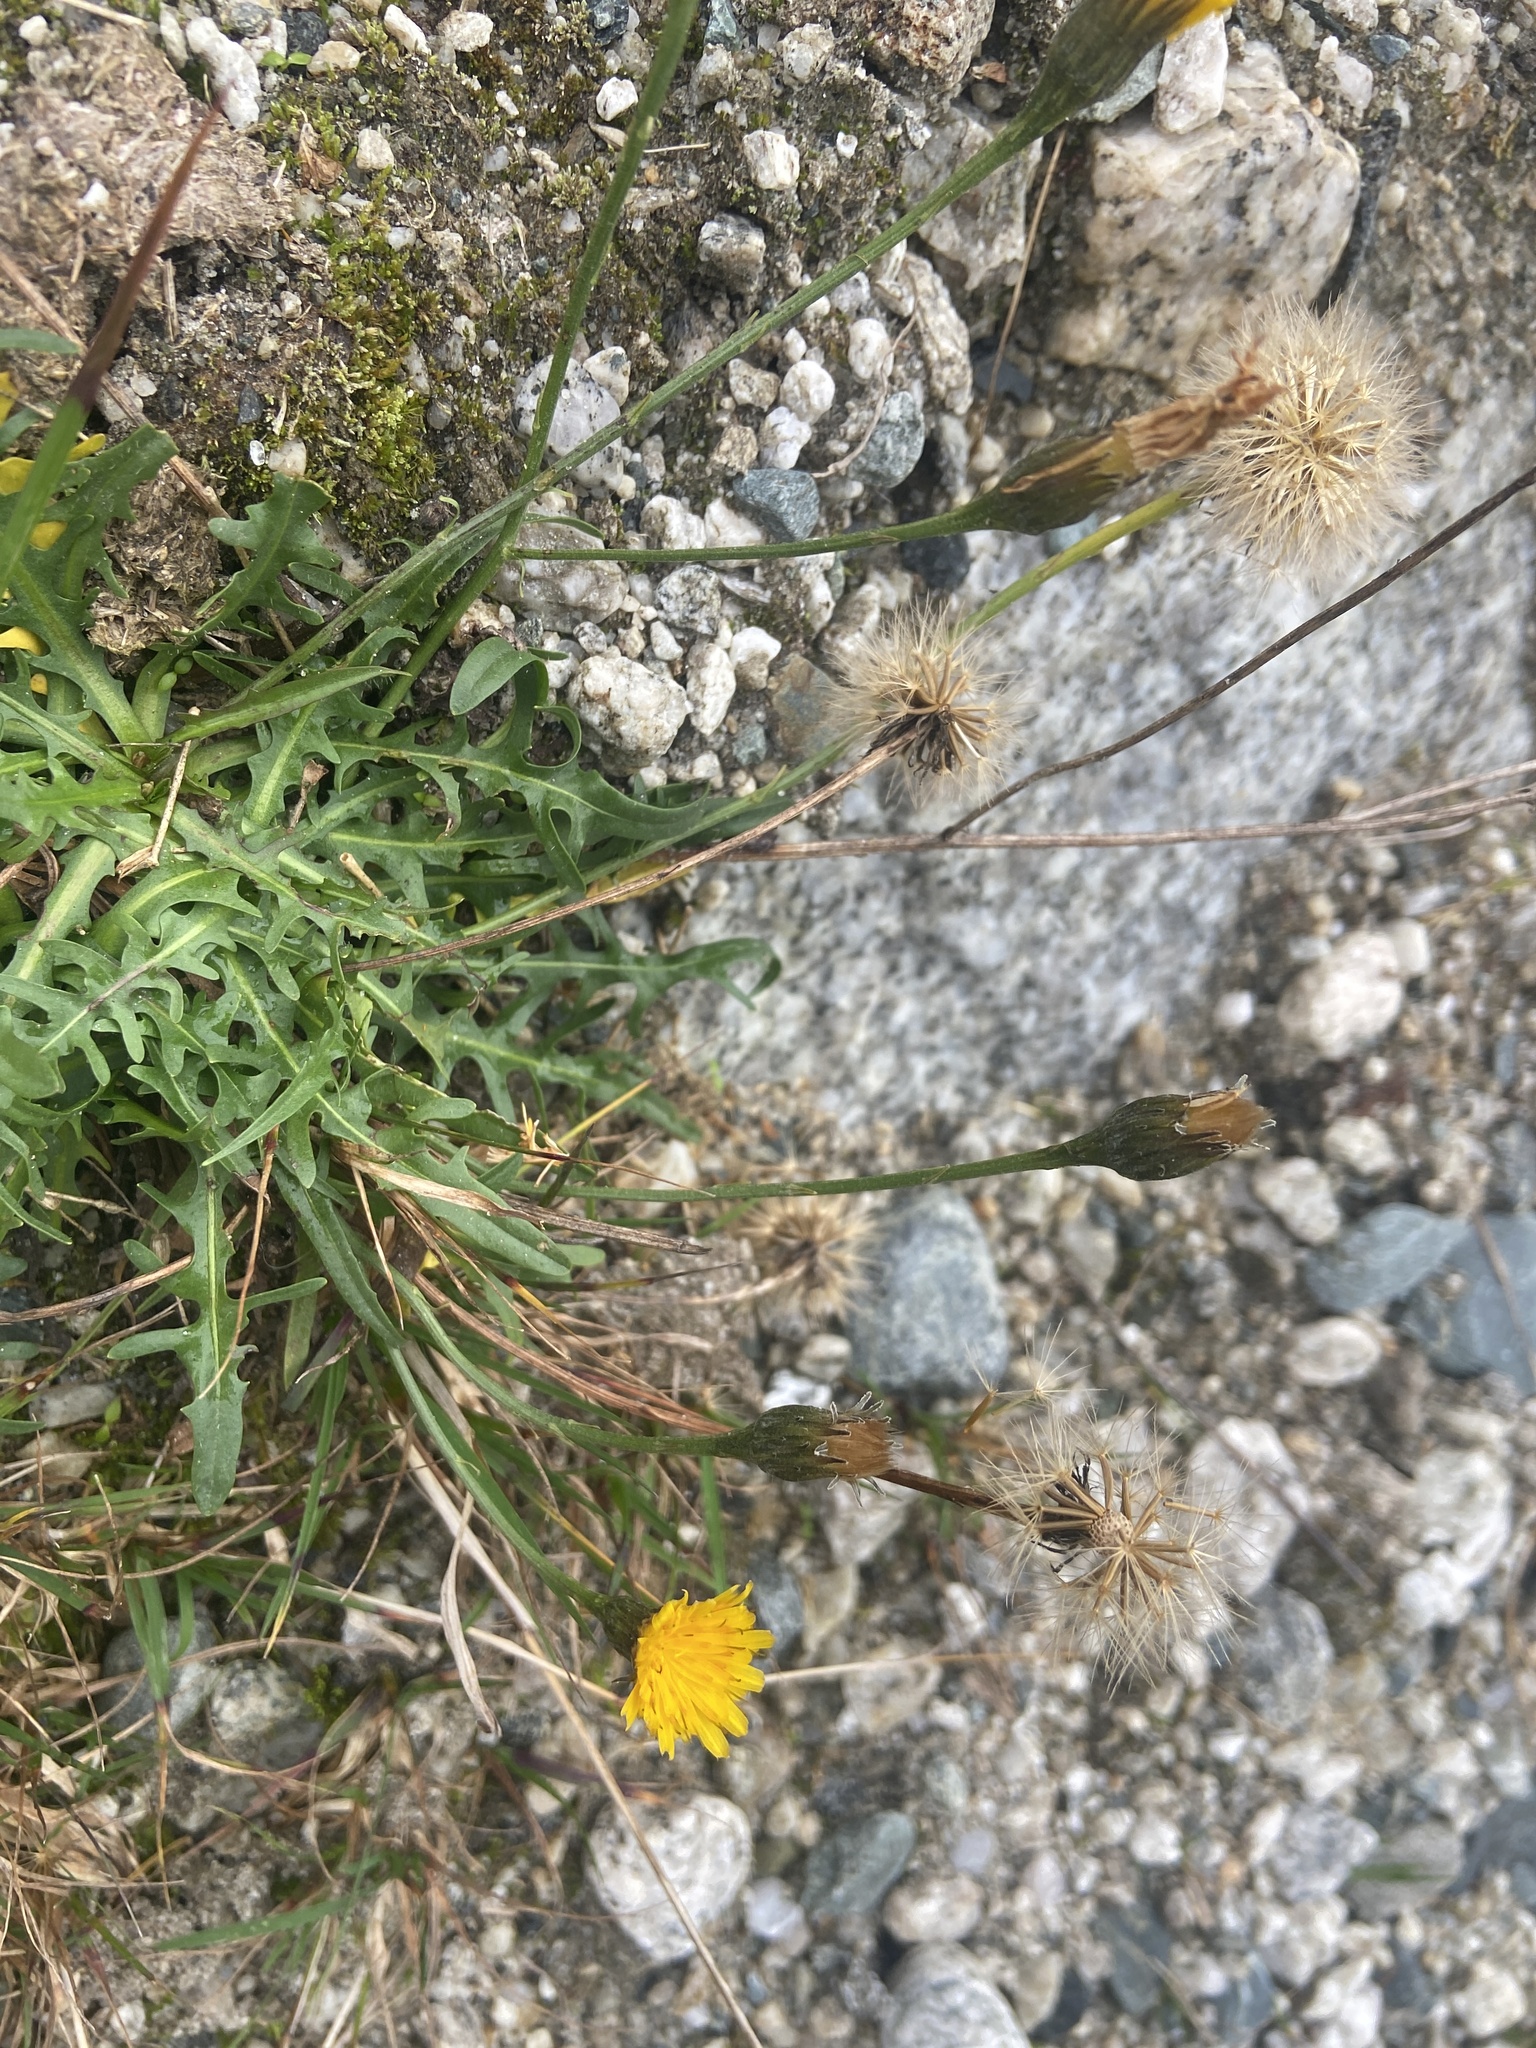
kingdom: Plantae
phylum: Tracheophyta
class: Magnoliopsida
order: Asterales
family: Asteraceae
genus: Scorzoneroides
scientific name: Scorzoneroides autumnalis
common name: Autumn hawkbit
